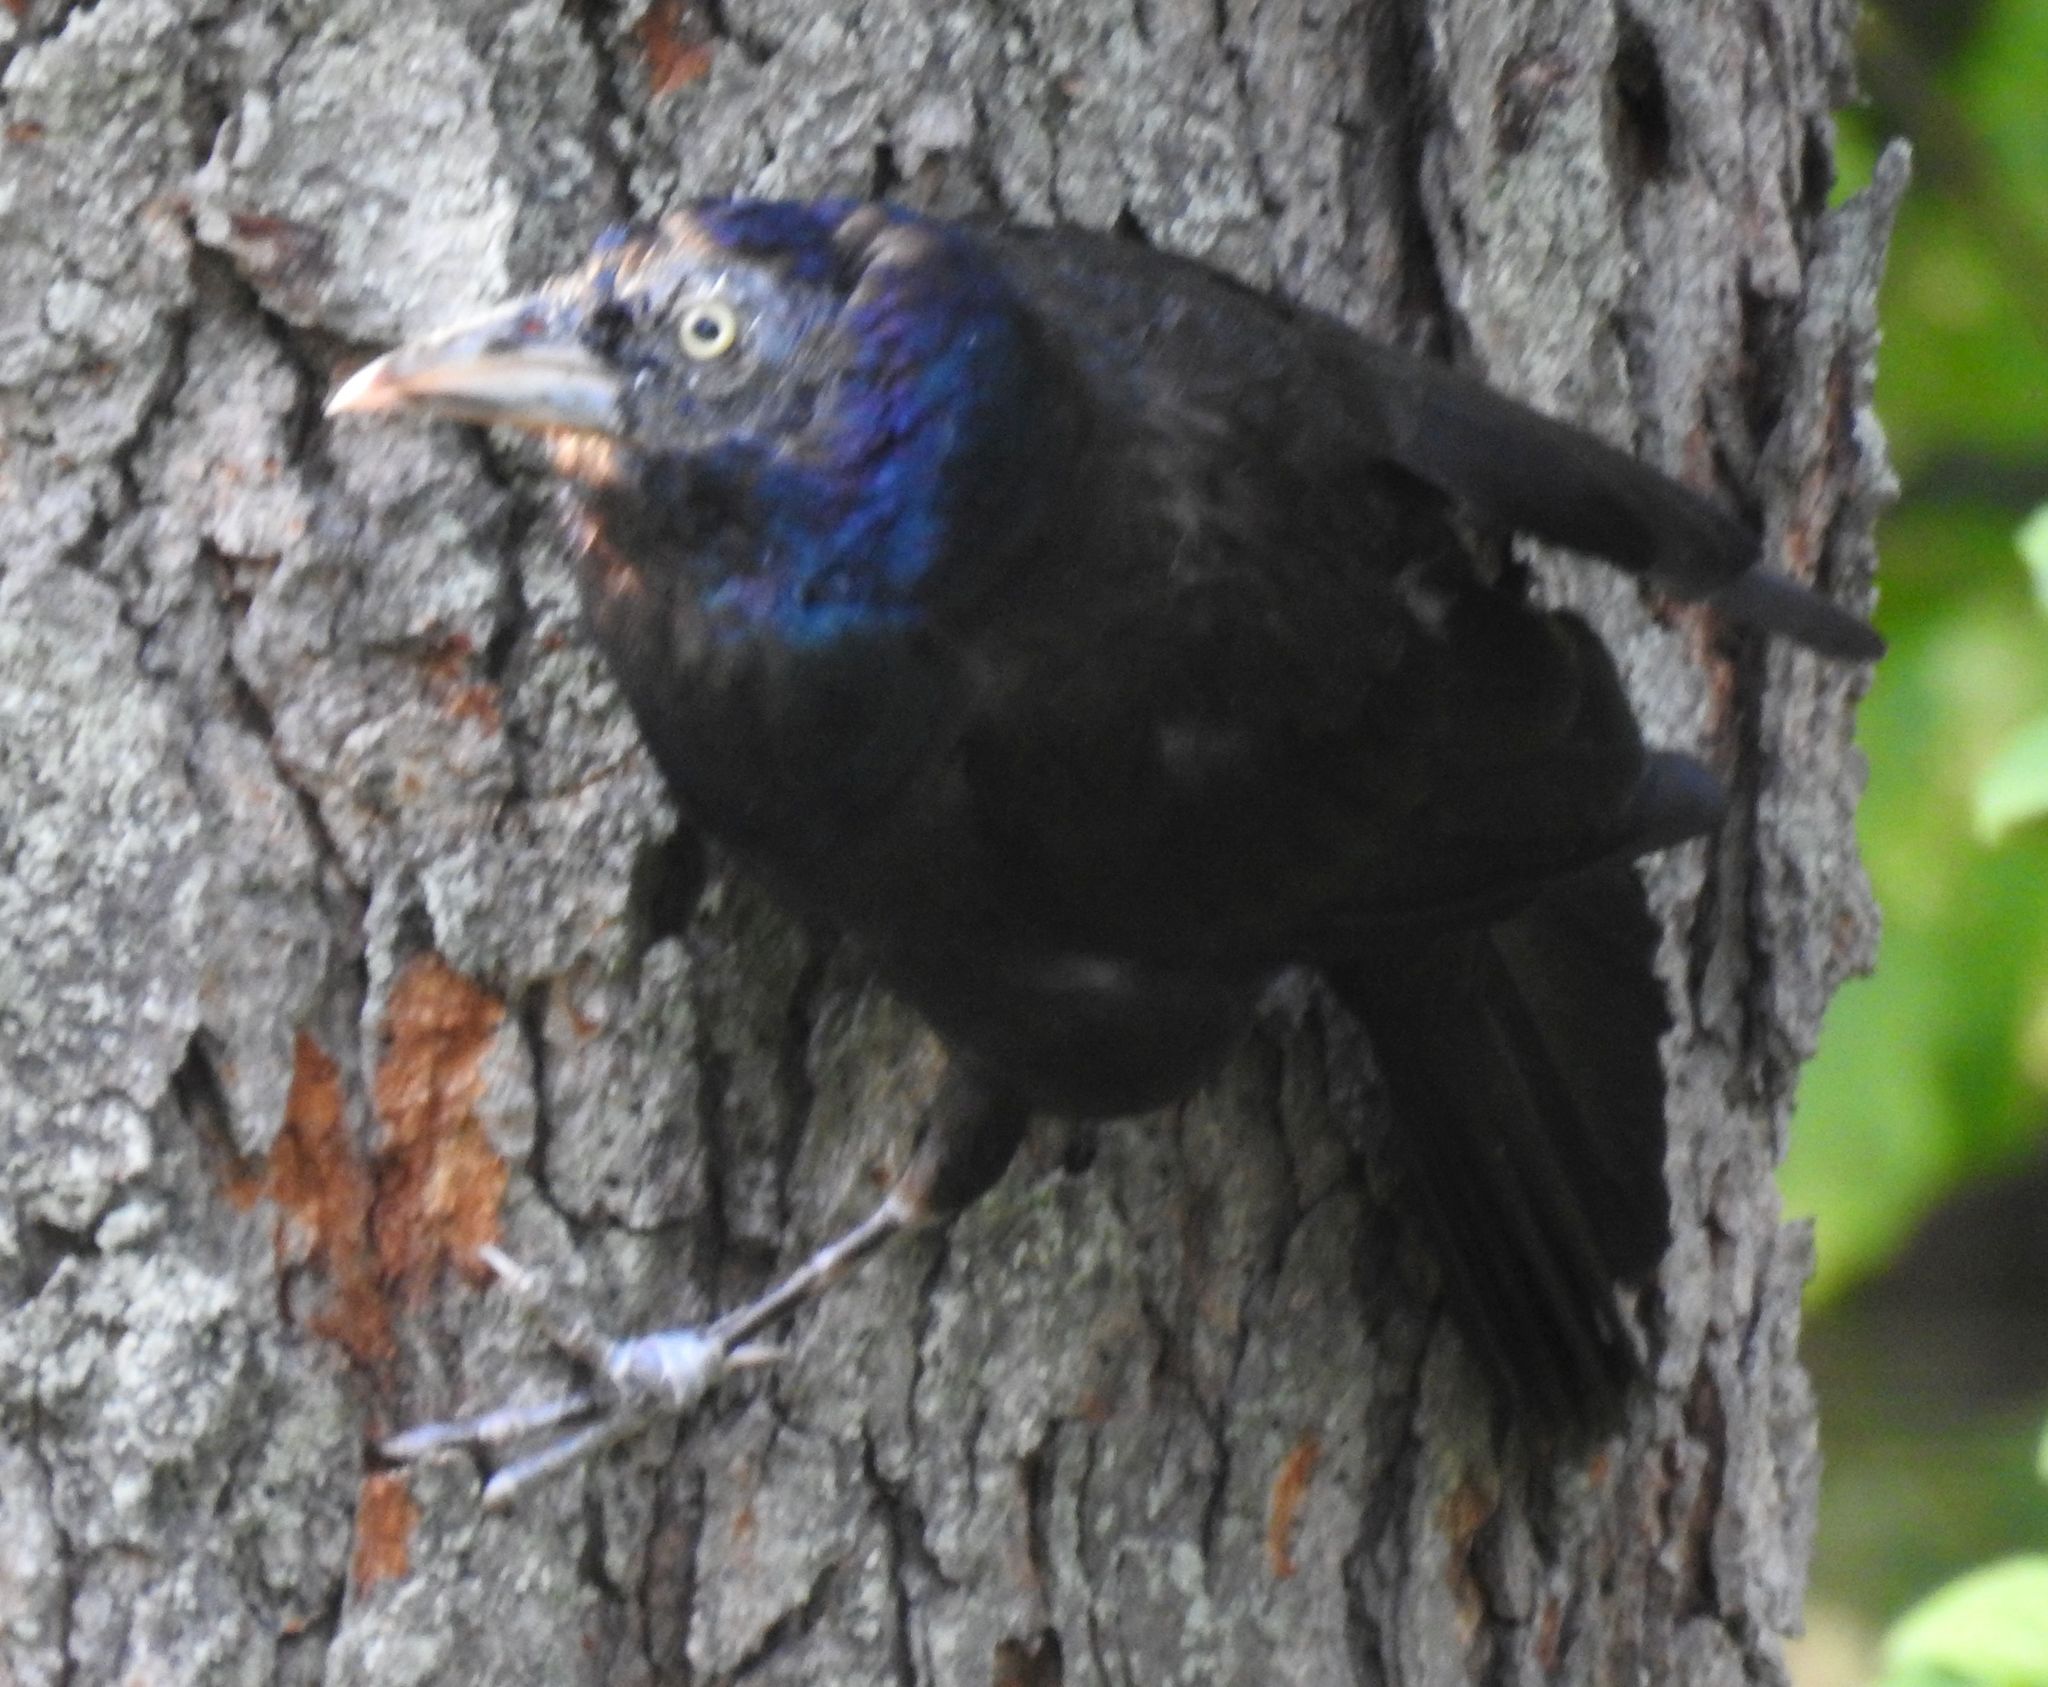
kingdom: Animalia
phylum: Chordata
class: Aves
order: Passeriformes
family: Icteridae
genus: Quiscalus
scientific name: Quiscalus quiscula
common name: Common grackle
